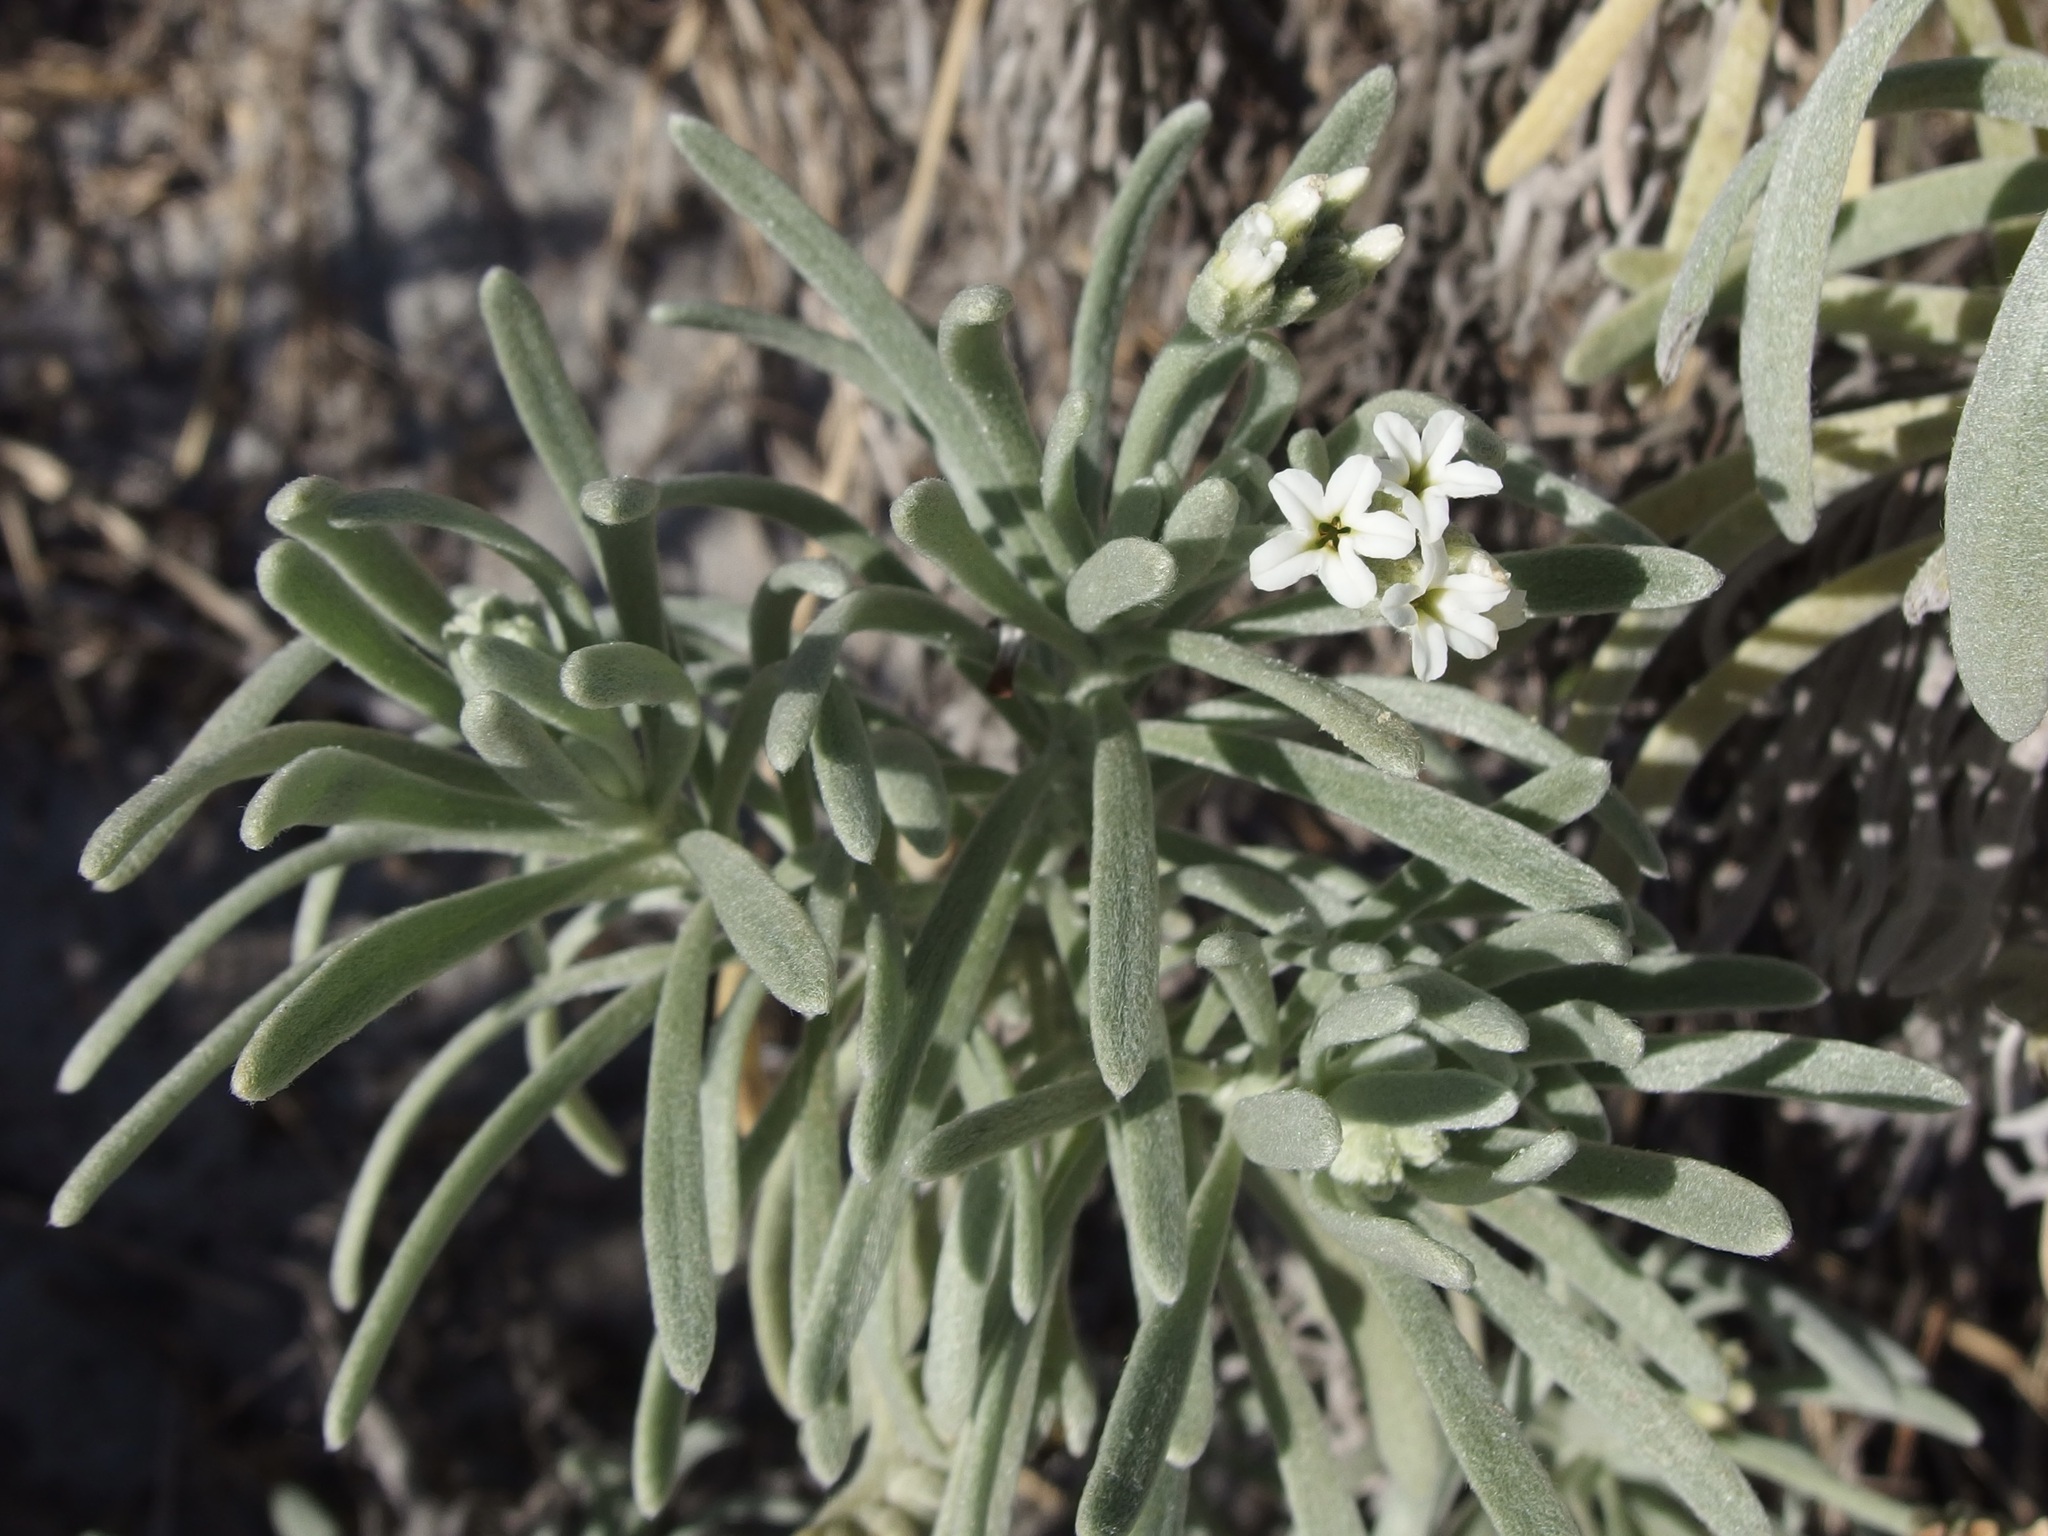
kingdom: Plantae
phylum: Tracheophyta
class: Magnoliopsida
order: Boraginales
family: Heliotropiaceae
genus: Tournefortia
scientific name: Tournefortia gnaphalodes
